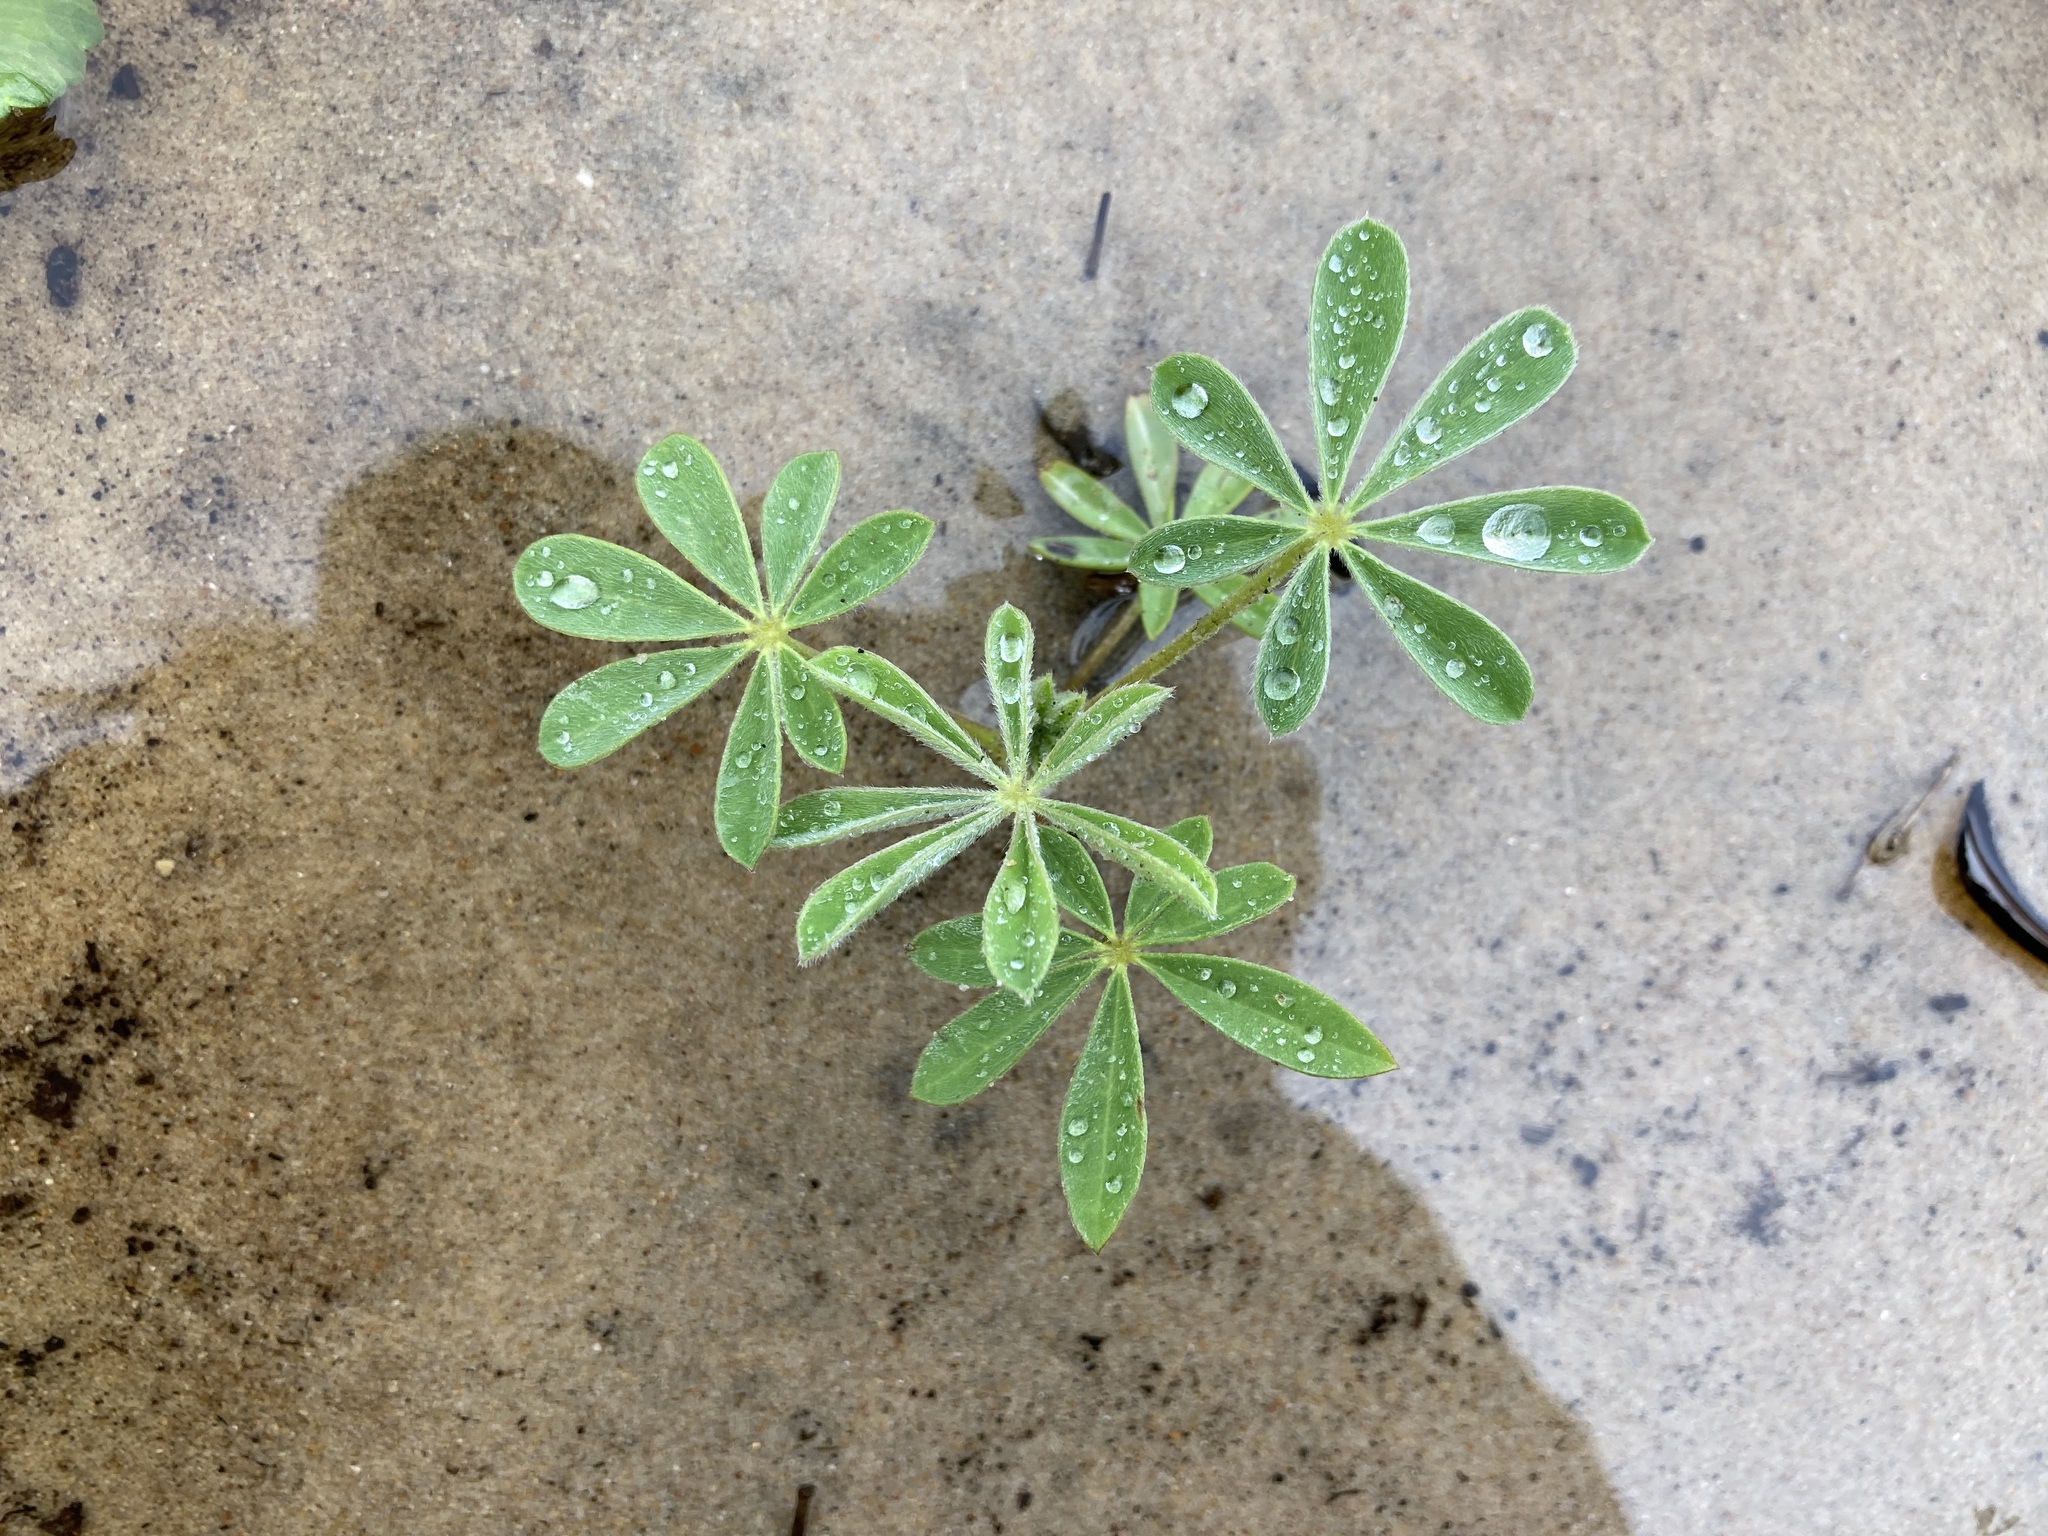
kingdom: Plantae
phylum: Tracheophyta
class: Magnoliopsida
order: Fabales
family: Fabaceae
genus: Lupinus
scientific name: Lupinus cosentinii
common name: Hairy blue lupin
